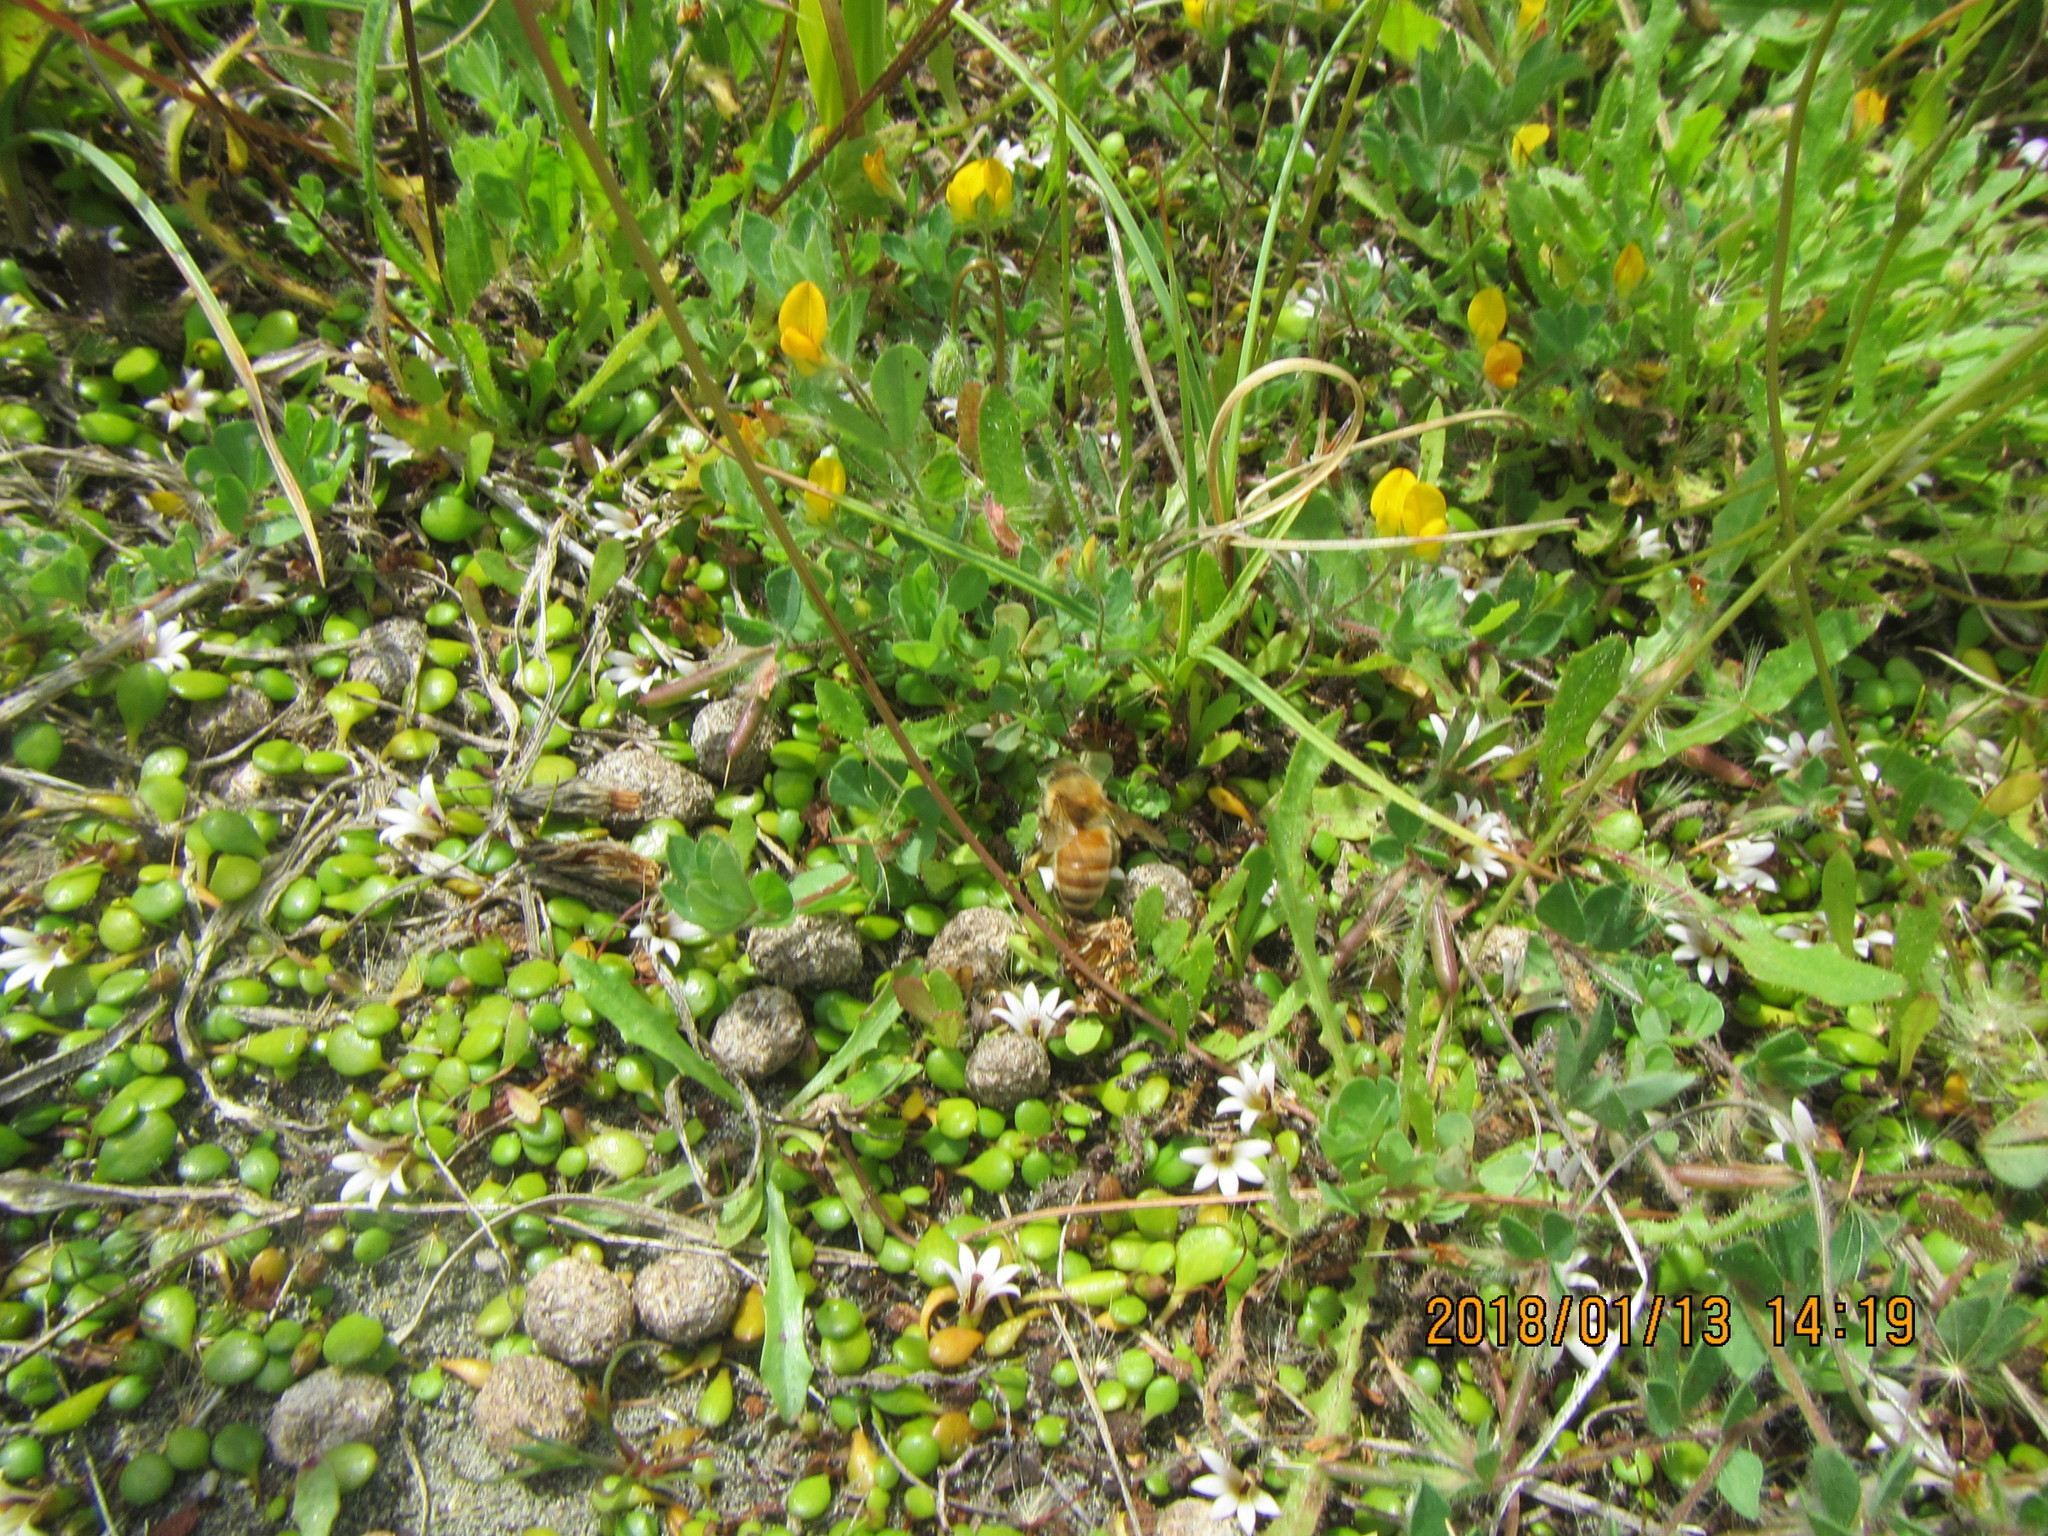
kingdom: Animalia
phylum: Arthropoda
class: Insecta
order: Hymenoptera
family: Apidae
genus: Apis
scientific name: Apis mellifera
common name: Honey bee
